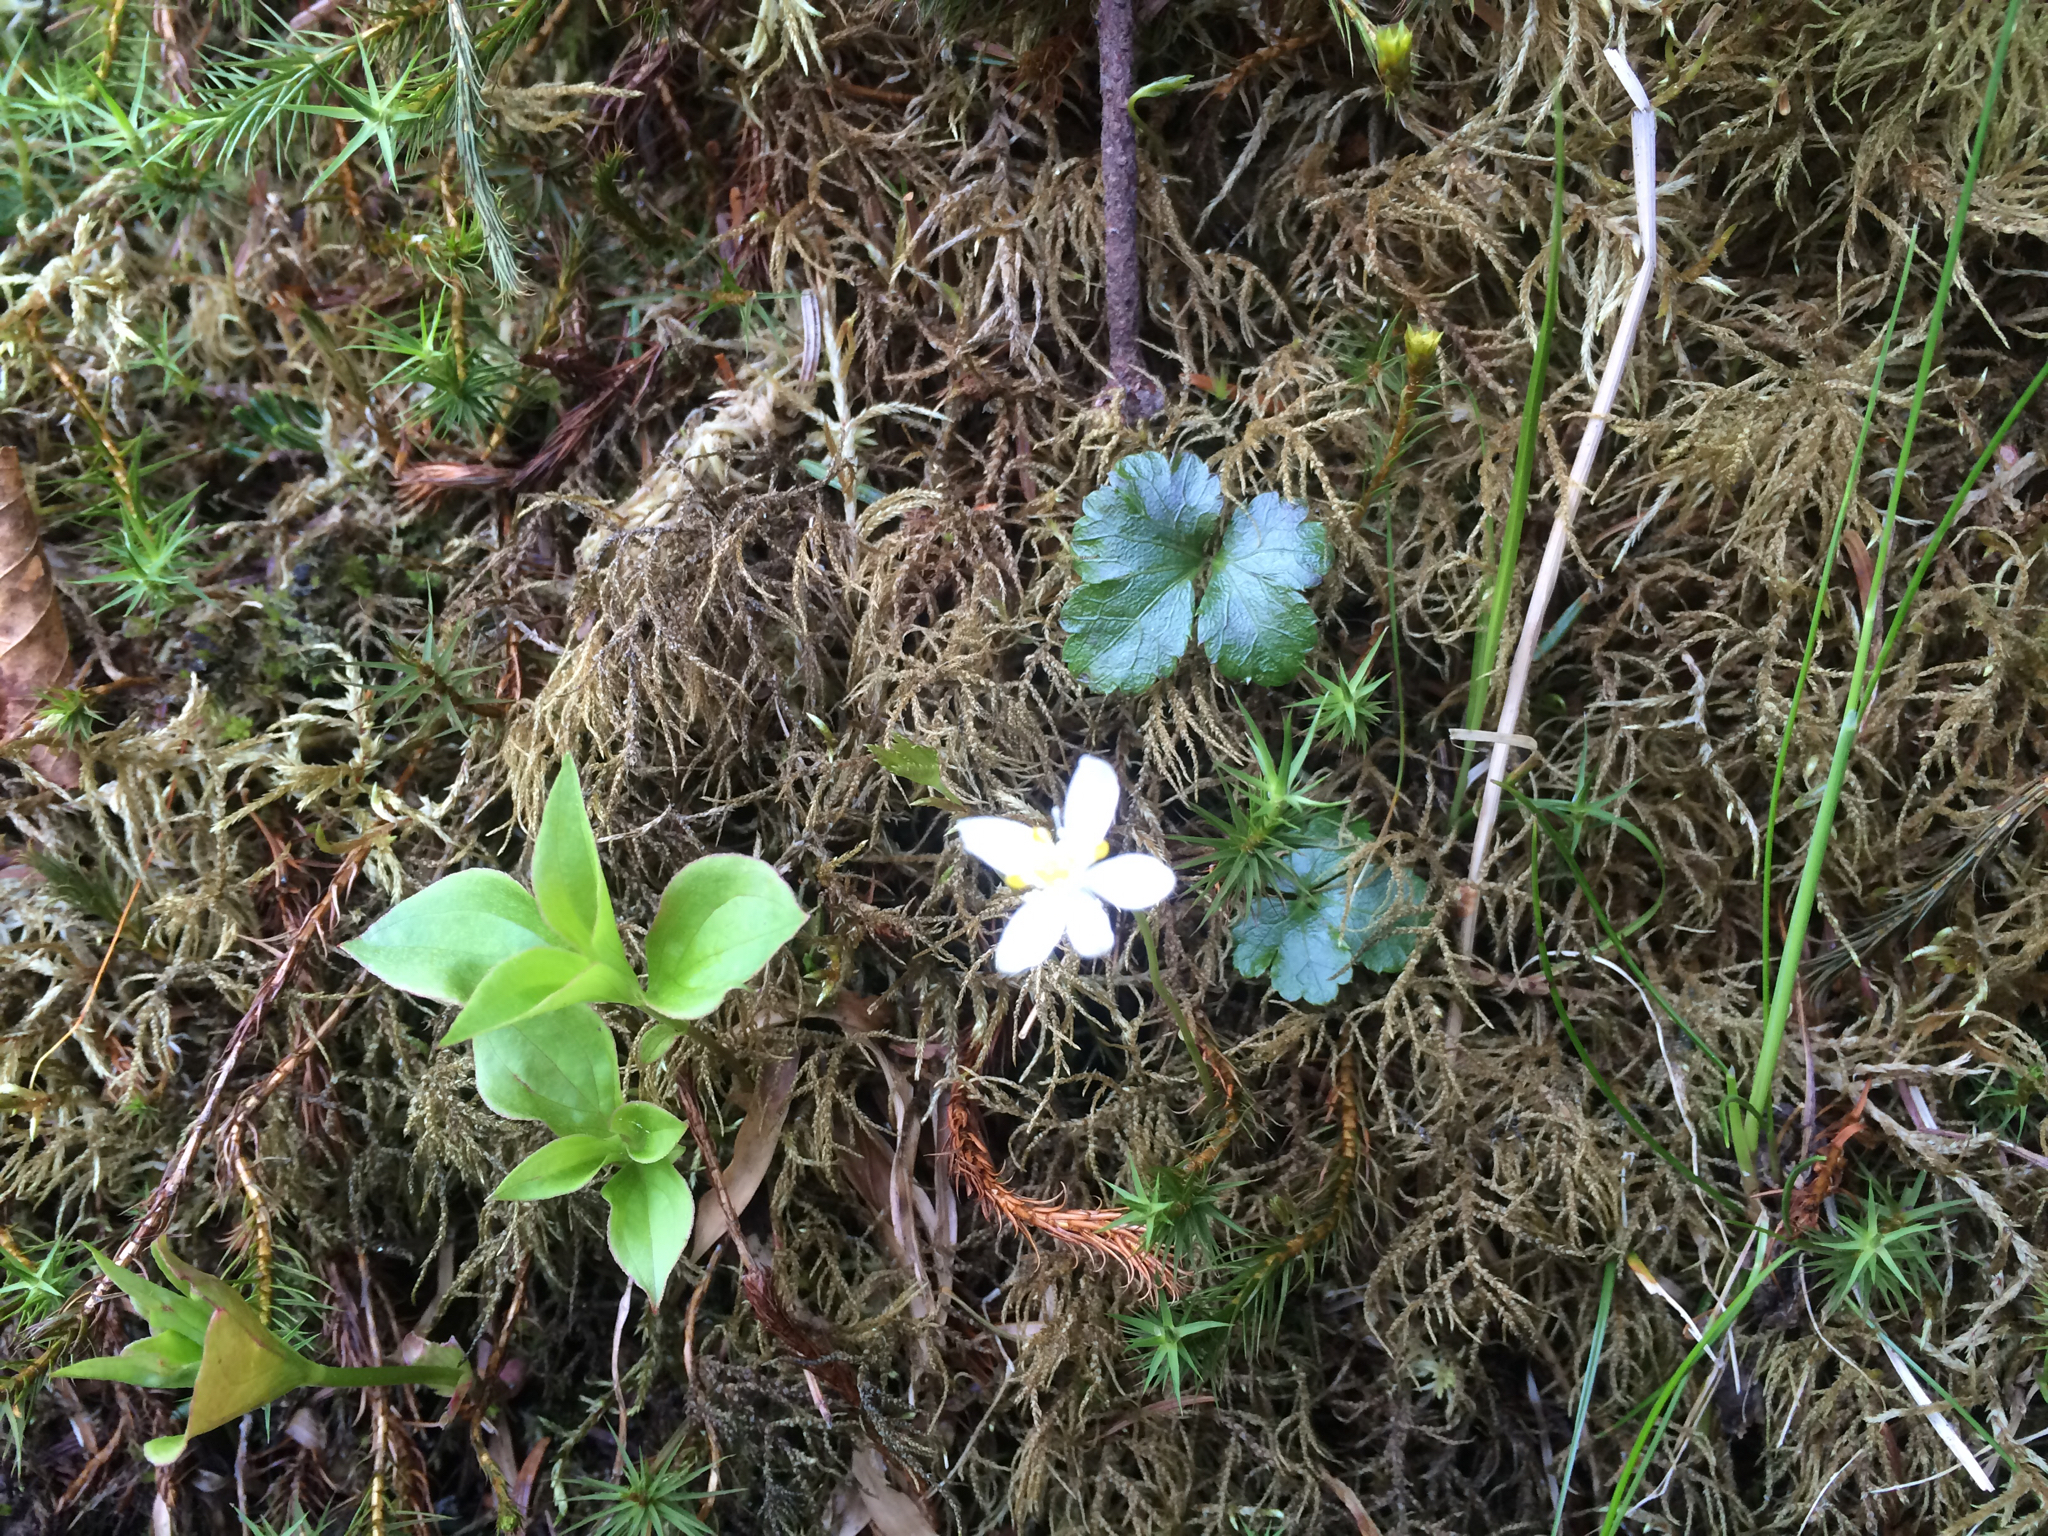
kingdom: Plantae
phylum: Tracheophyta
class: Magnoliopsida
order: Ranunculales
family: Ranunculaceae
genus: Coptis
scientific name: Coptis trifolia
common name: Canker-root
